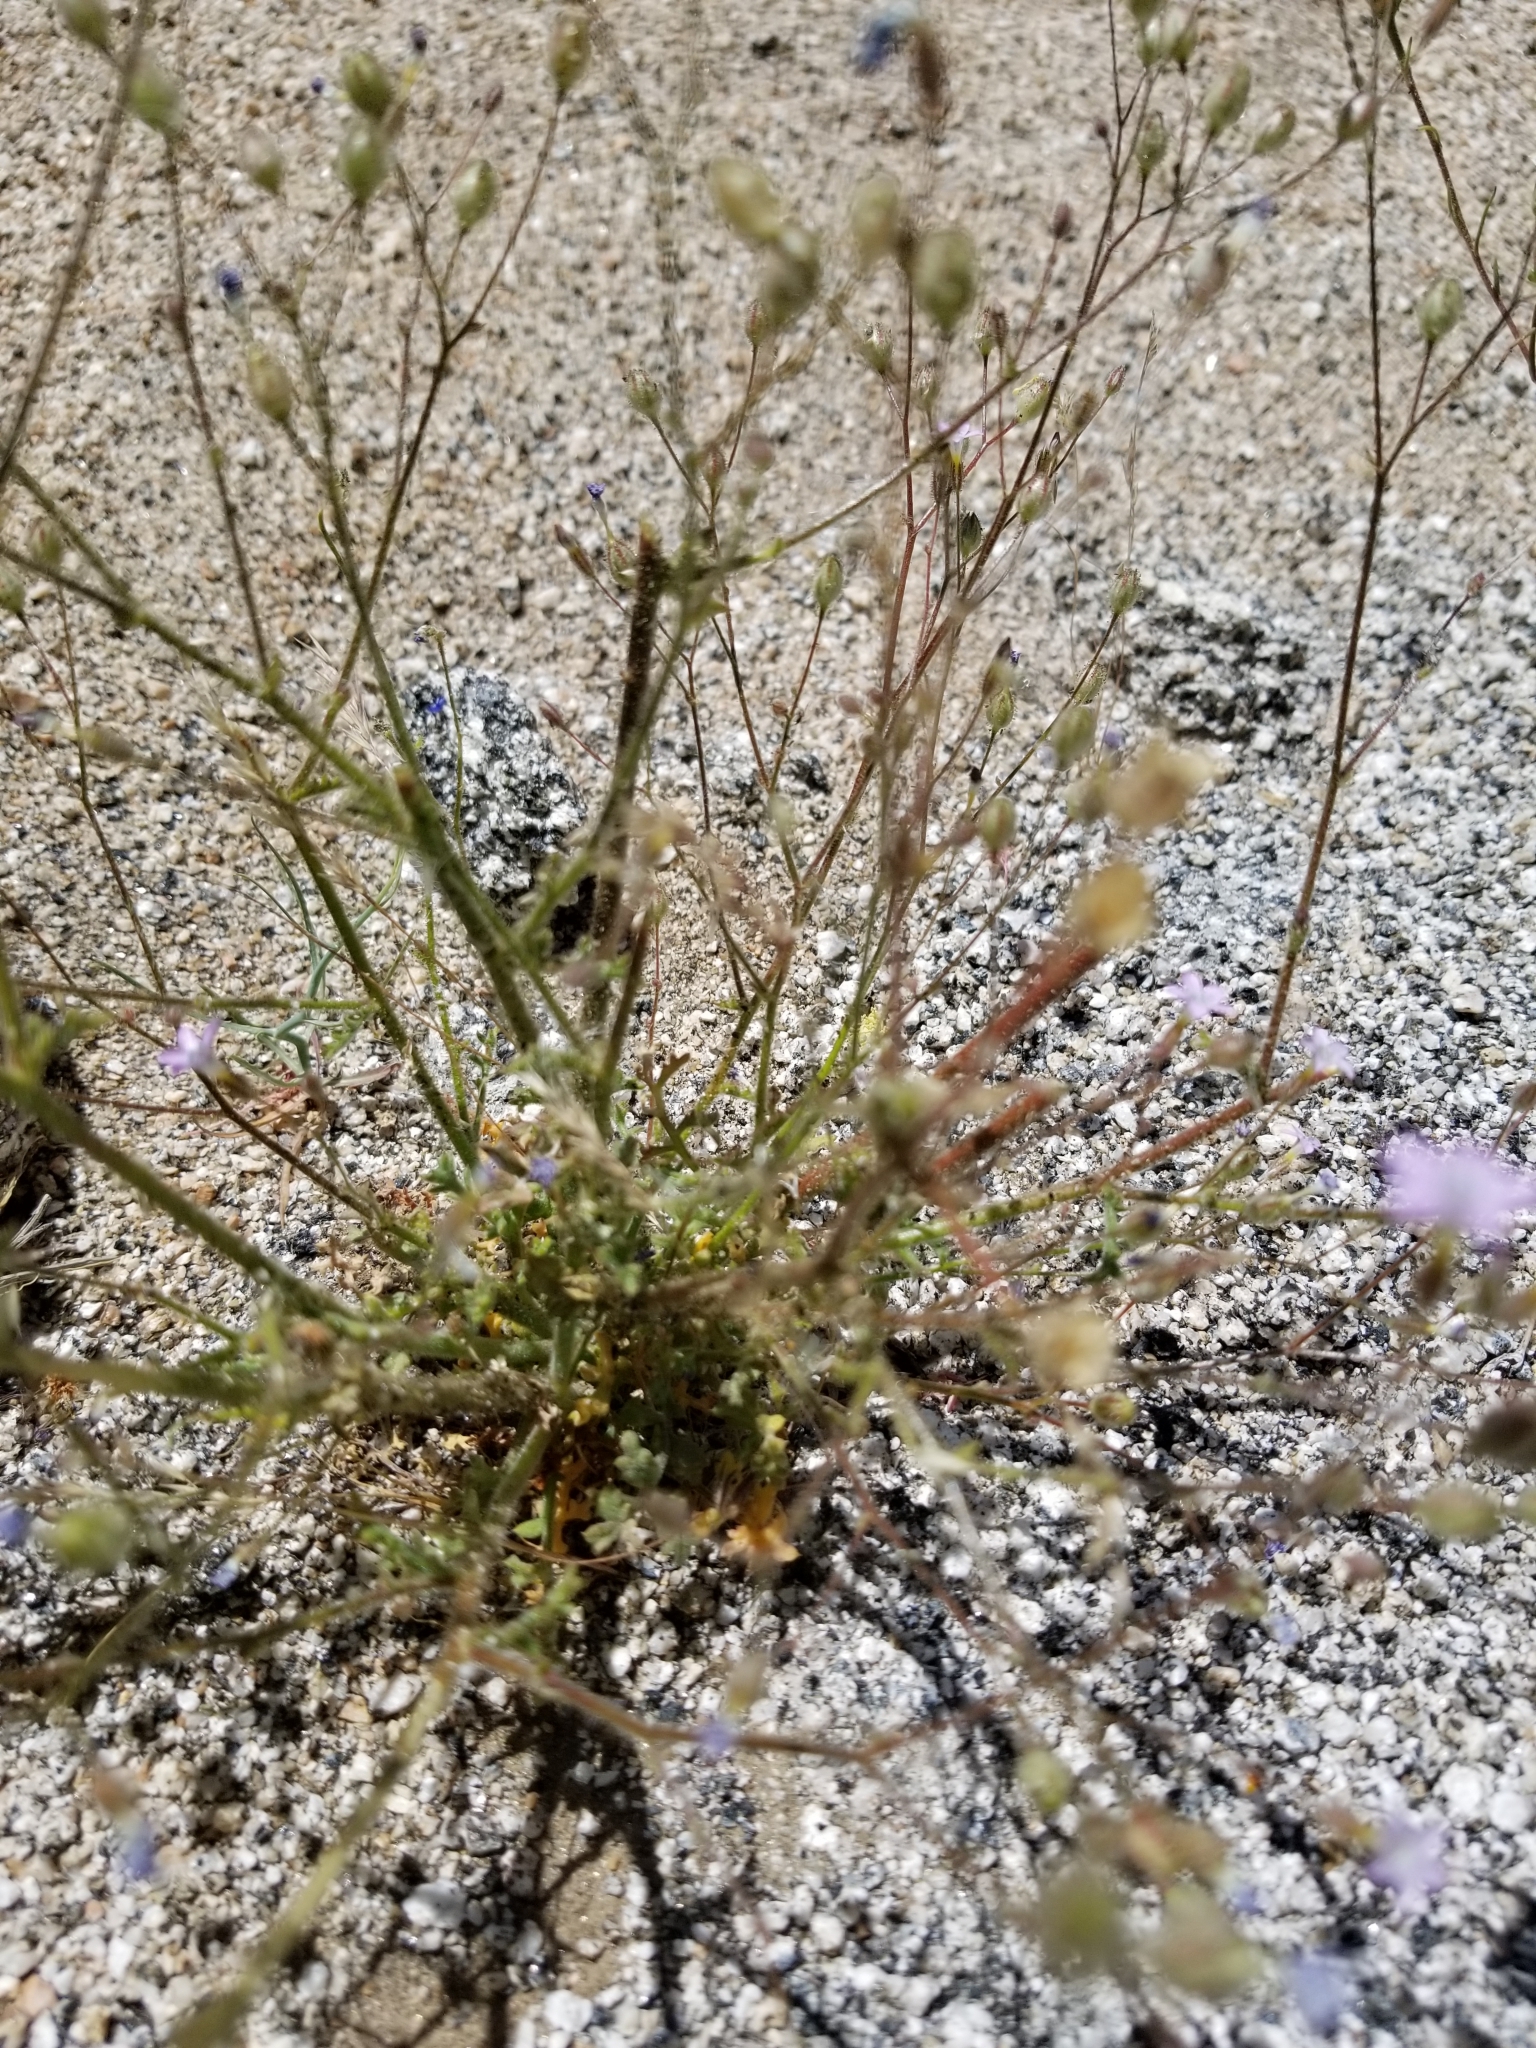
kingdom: Plantae
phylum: Tracheophyta
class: Magnoliopsida
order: Ericales
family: Polemoniaceae
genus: Gilia
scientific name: Gilia stellata
